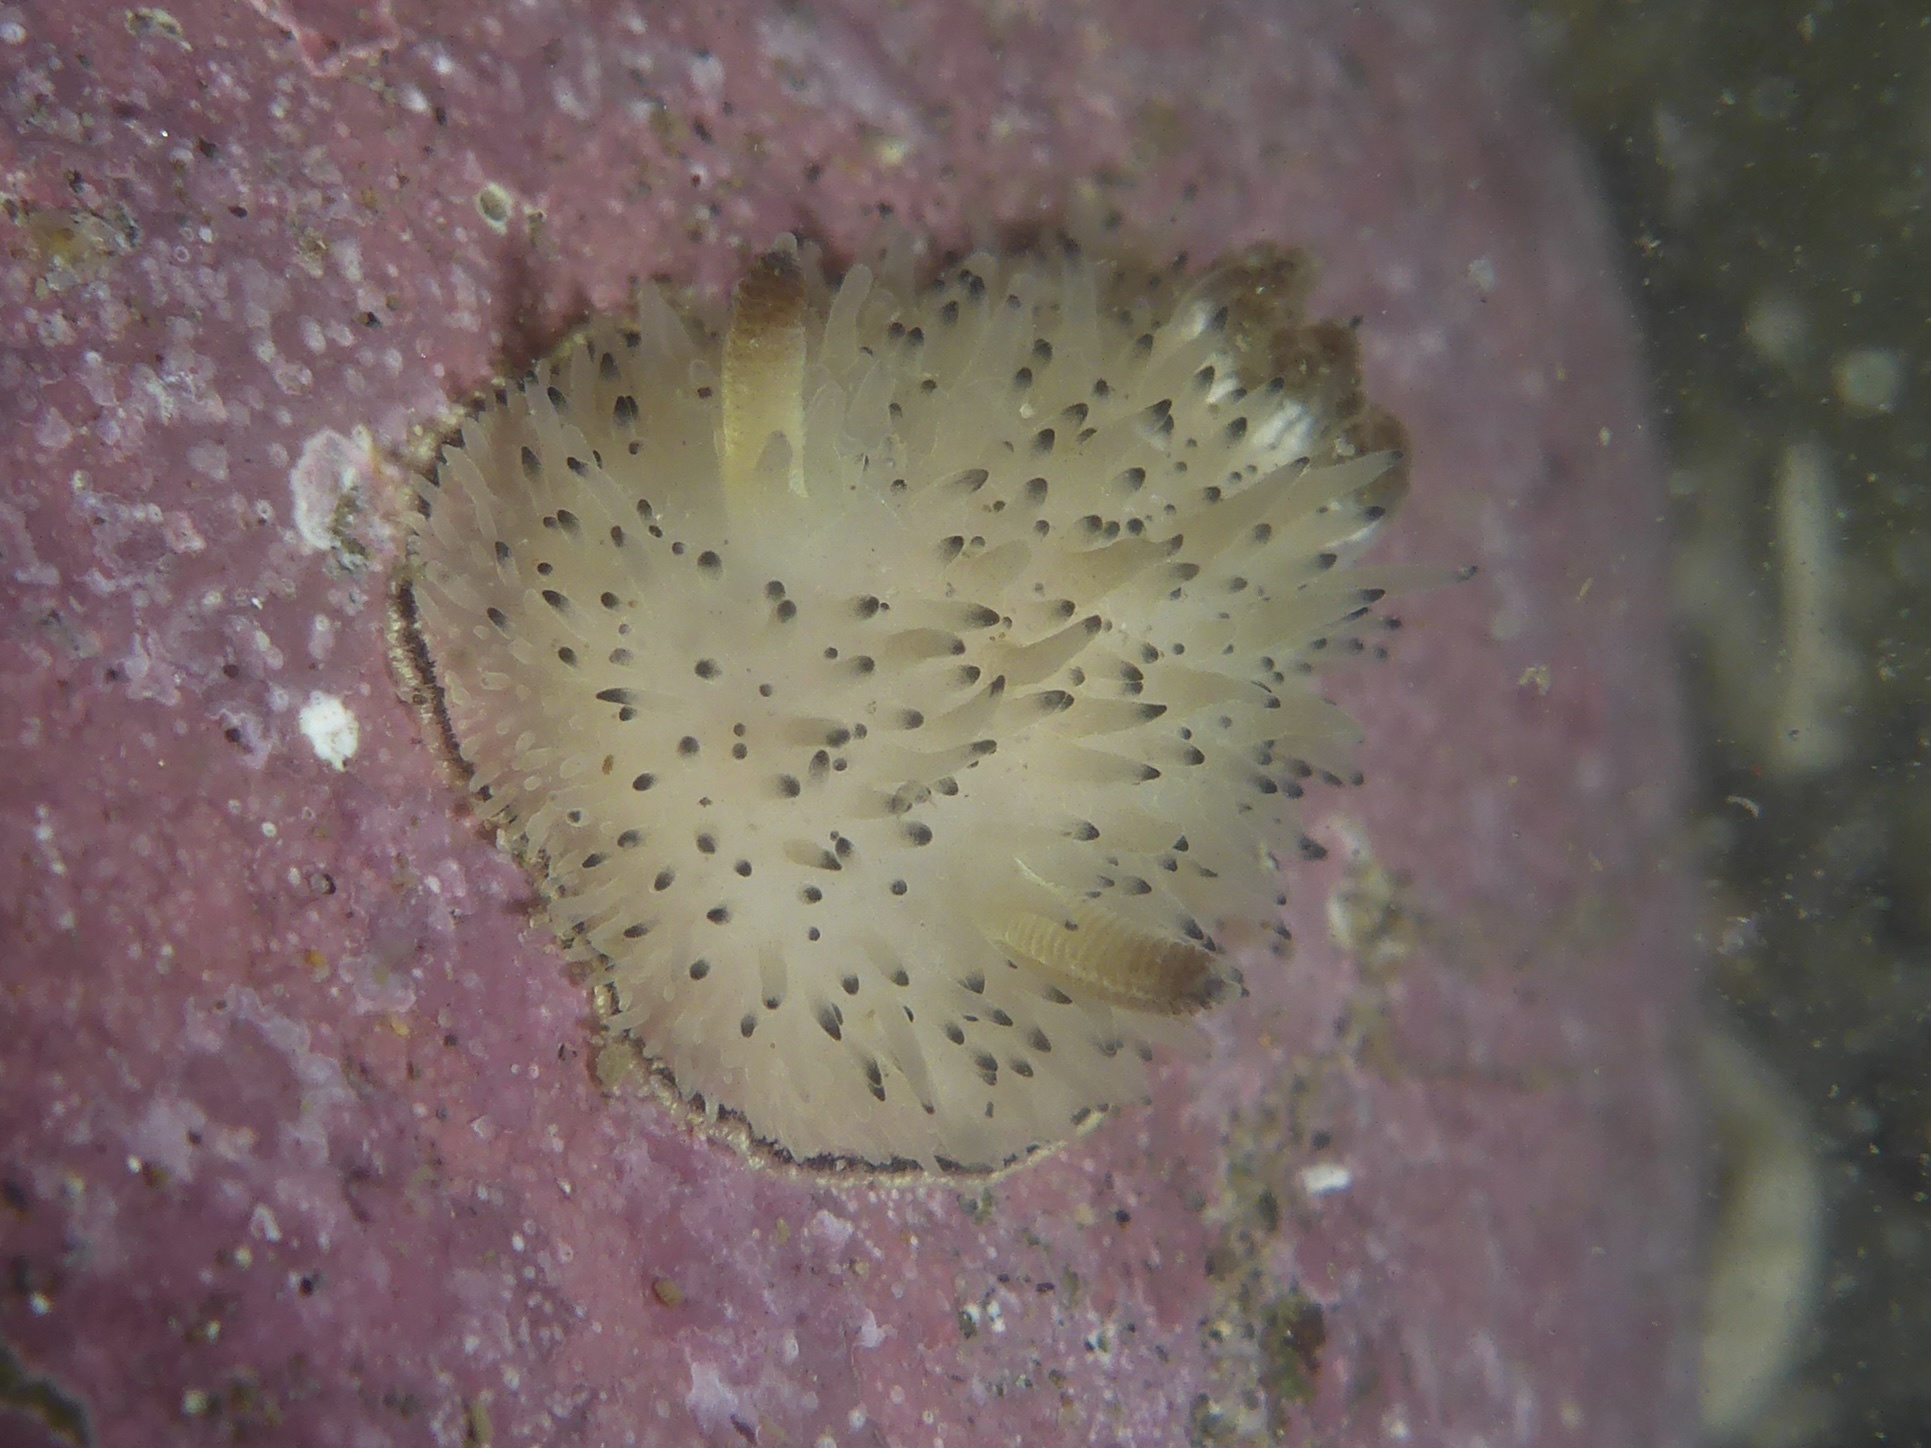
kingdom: Animalia
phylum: Mollusca
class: Gastropoda
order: Nudibranchia
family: Onchidorididae
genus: Acanthodoris
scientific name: Acanthodoris rhodoceras
